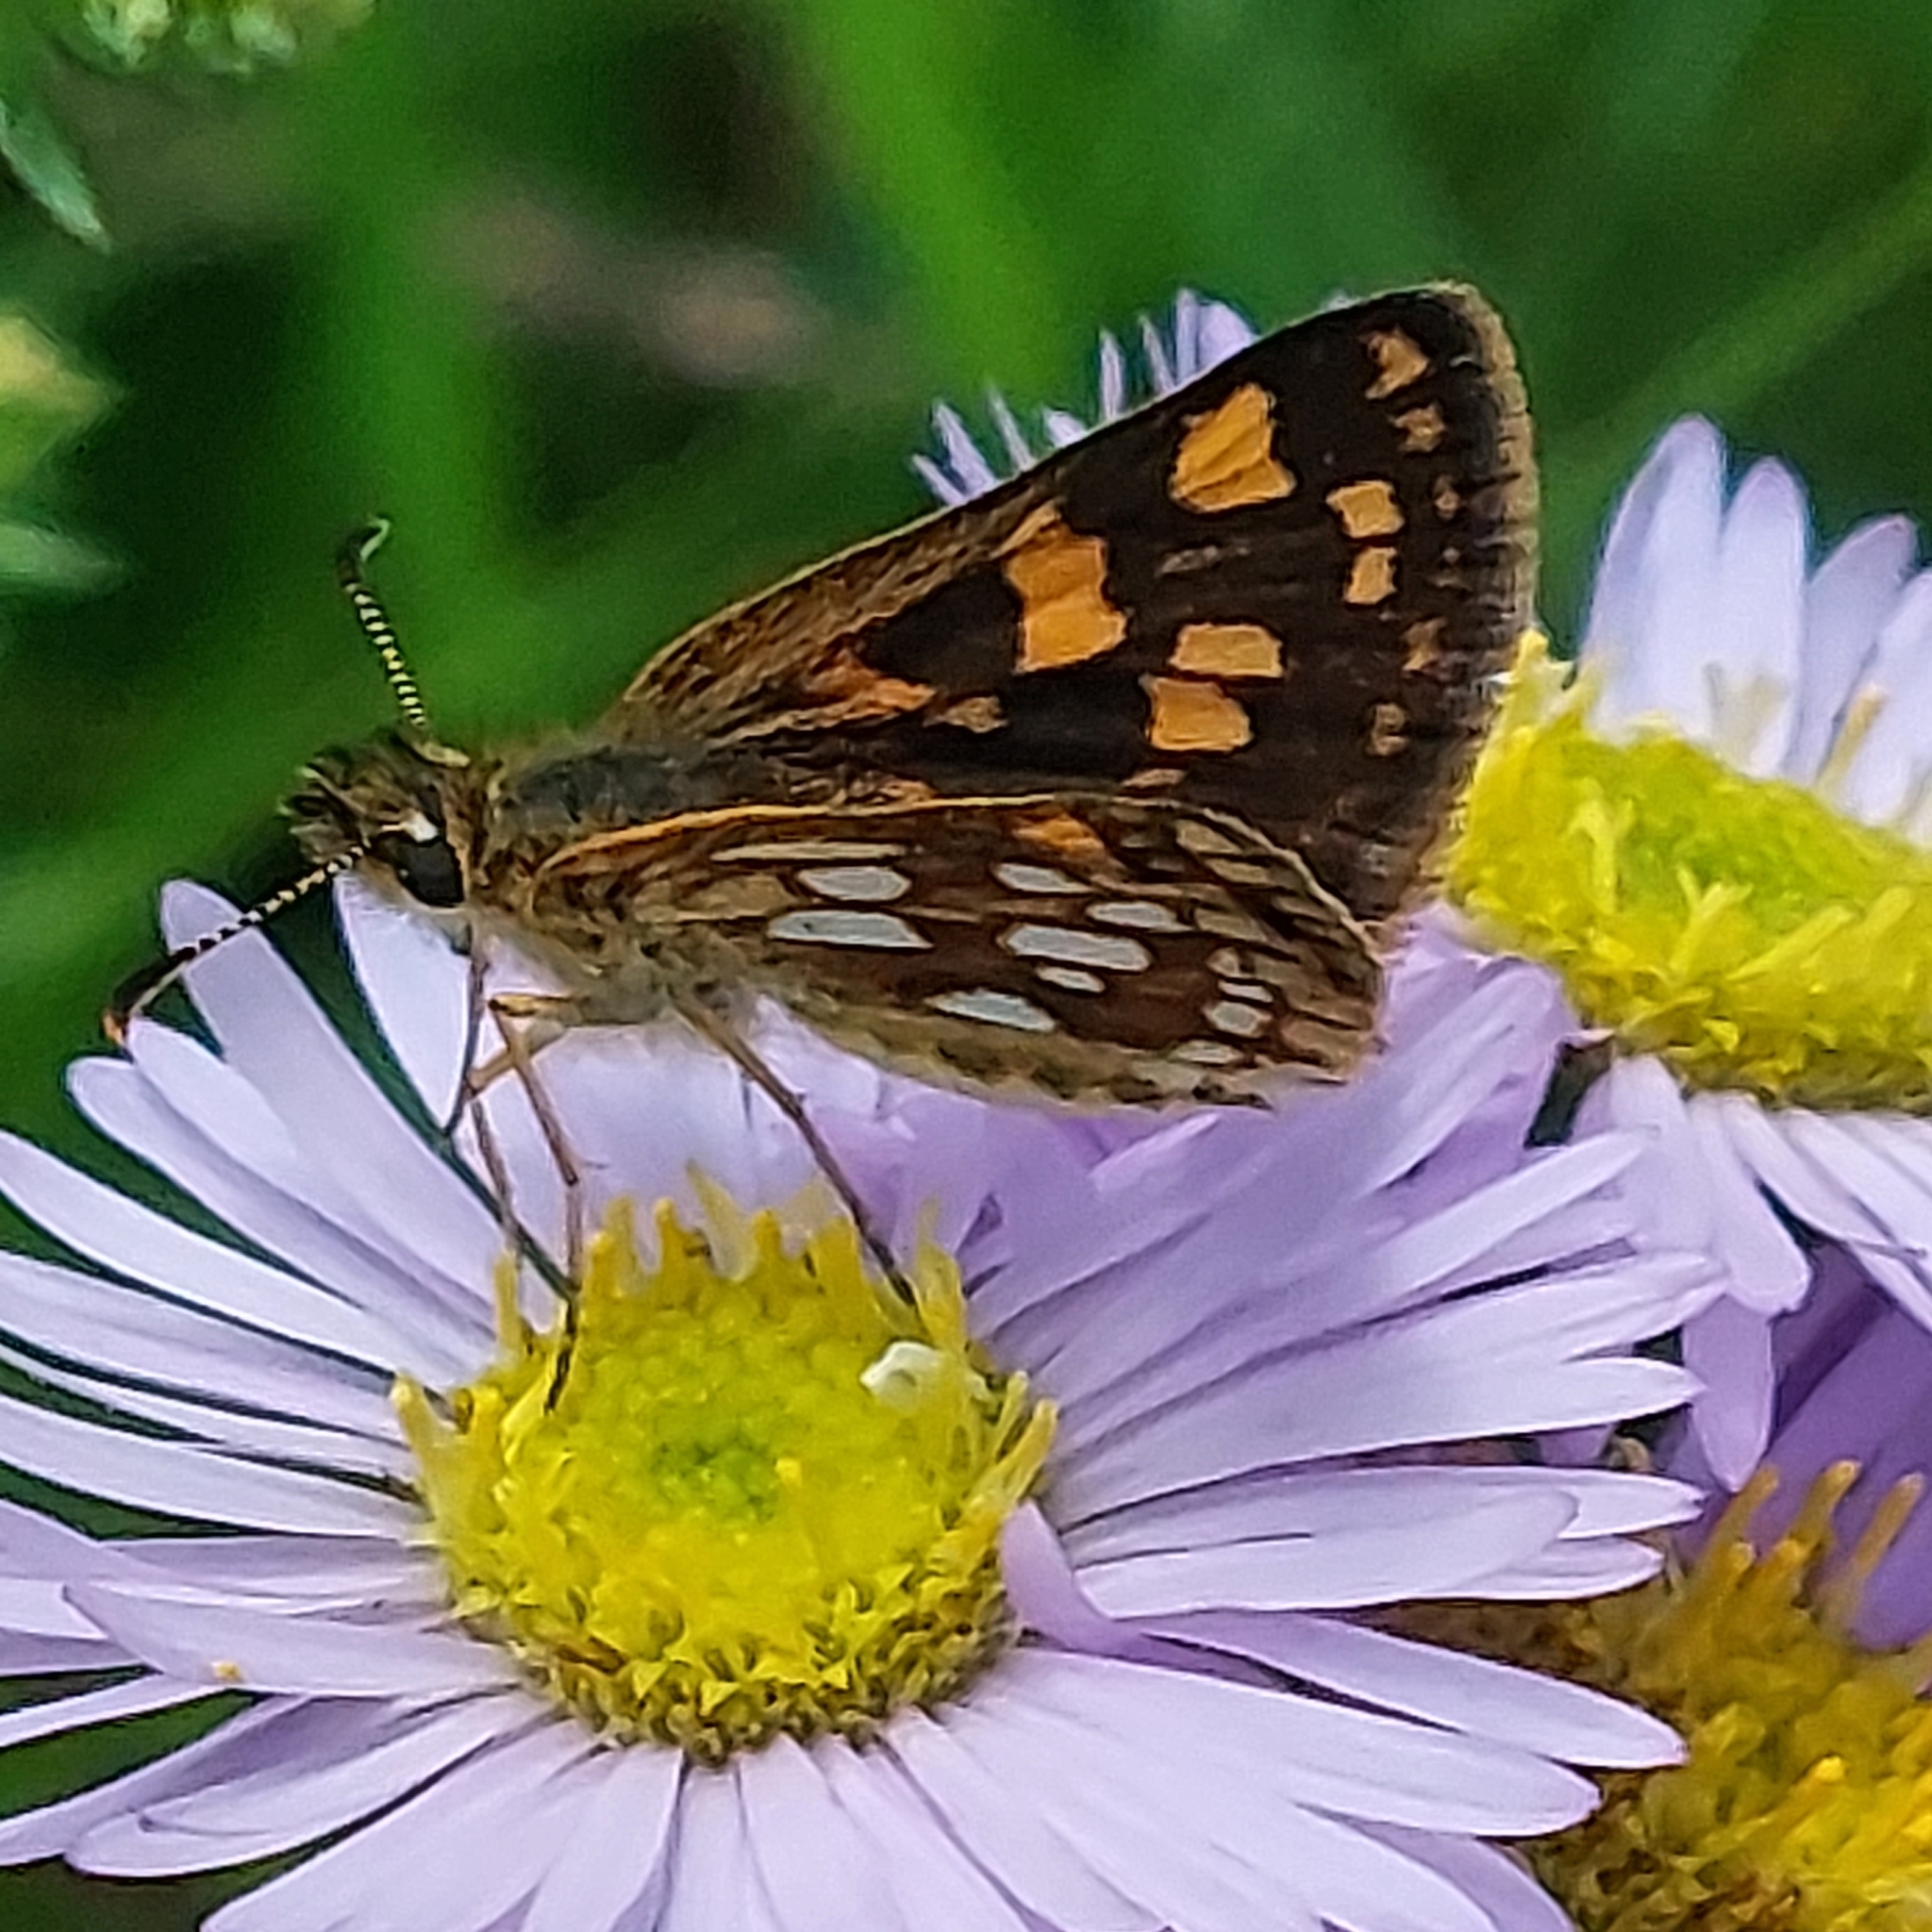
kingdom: Animalia
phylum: Arthropoda
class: Insecta
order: Lepidoptera
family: Hesperiidae
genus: Carterocephalus
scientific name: Carterocephalus mandan
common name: Arctic skipperling
